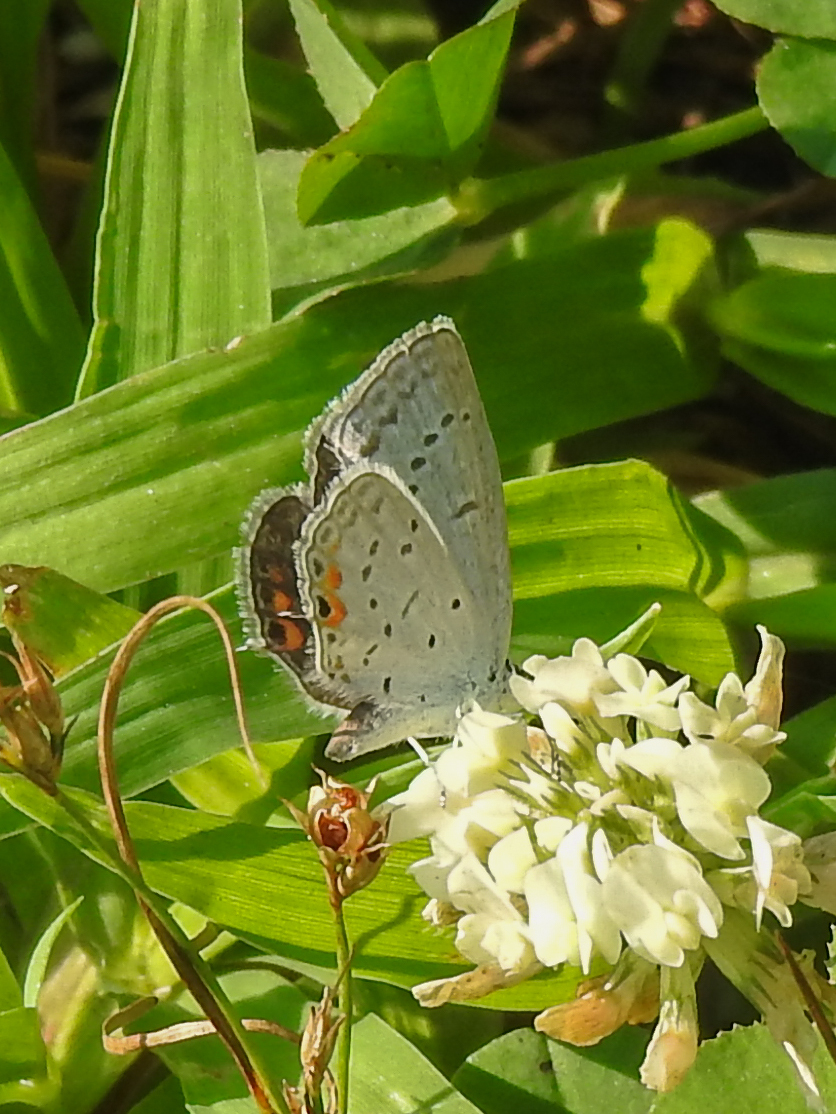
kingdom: Animalia
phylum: Arthropoda
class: Insecta
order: Lepidoptera
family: Lycaenidae
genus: Elkalyce
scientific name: Elkalyce comyntas
